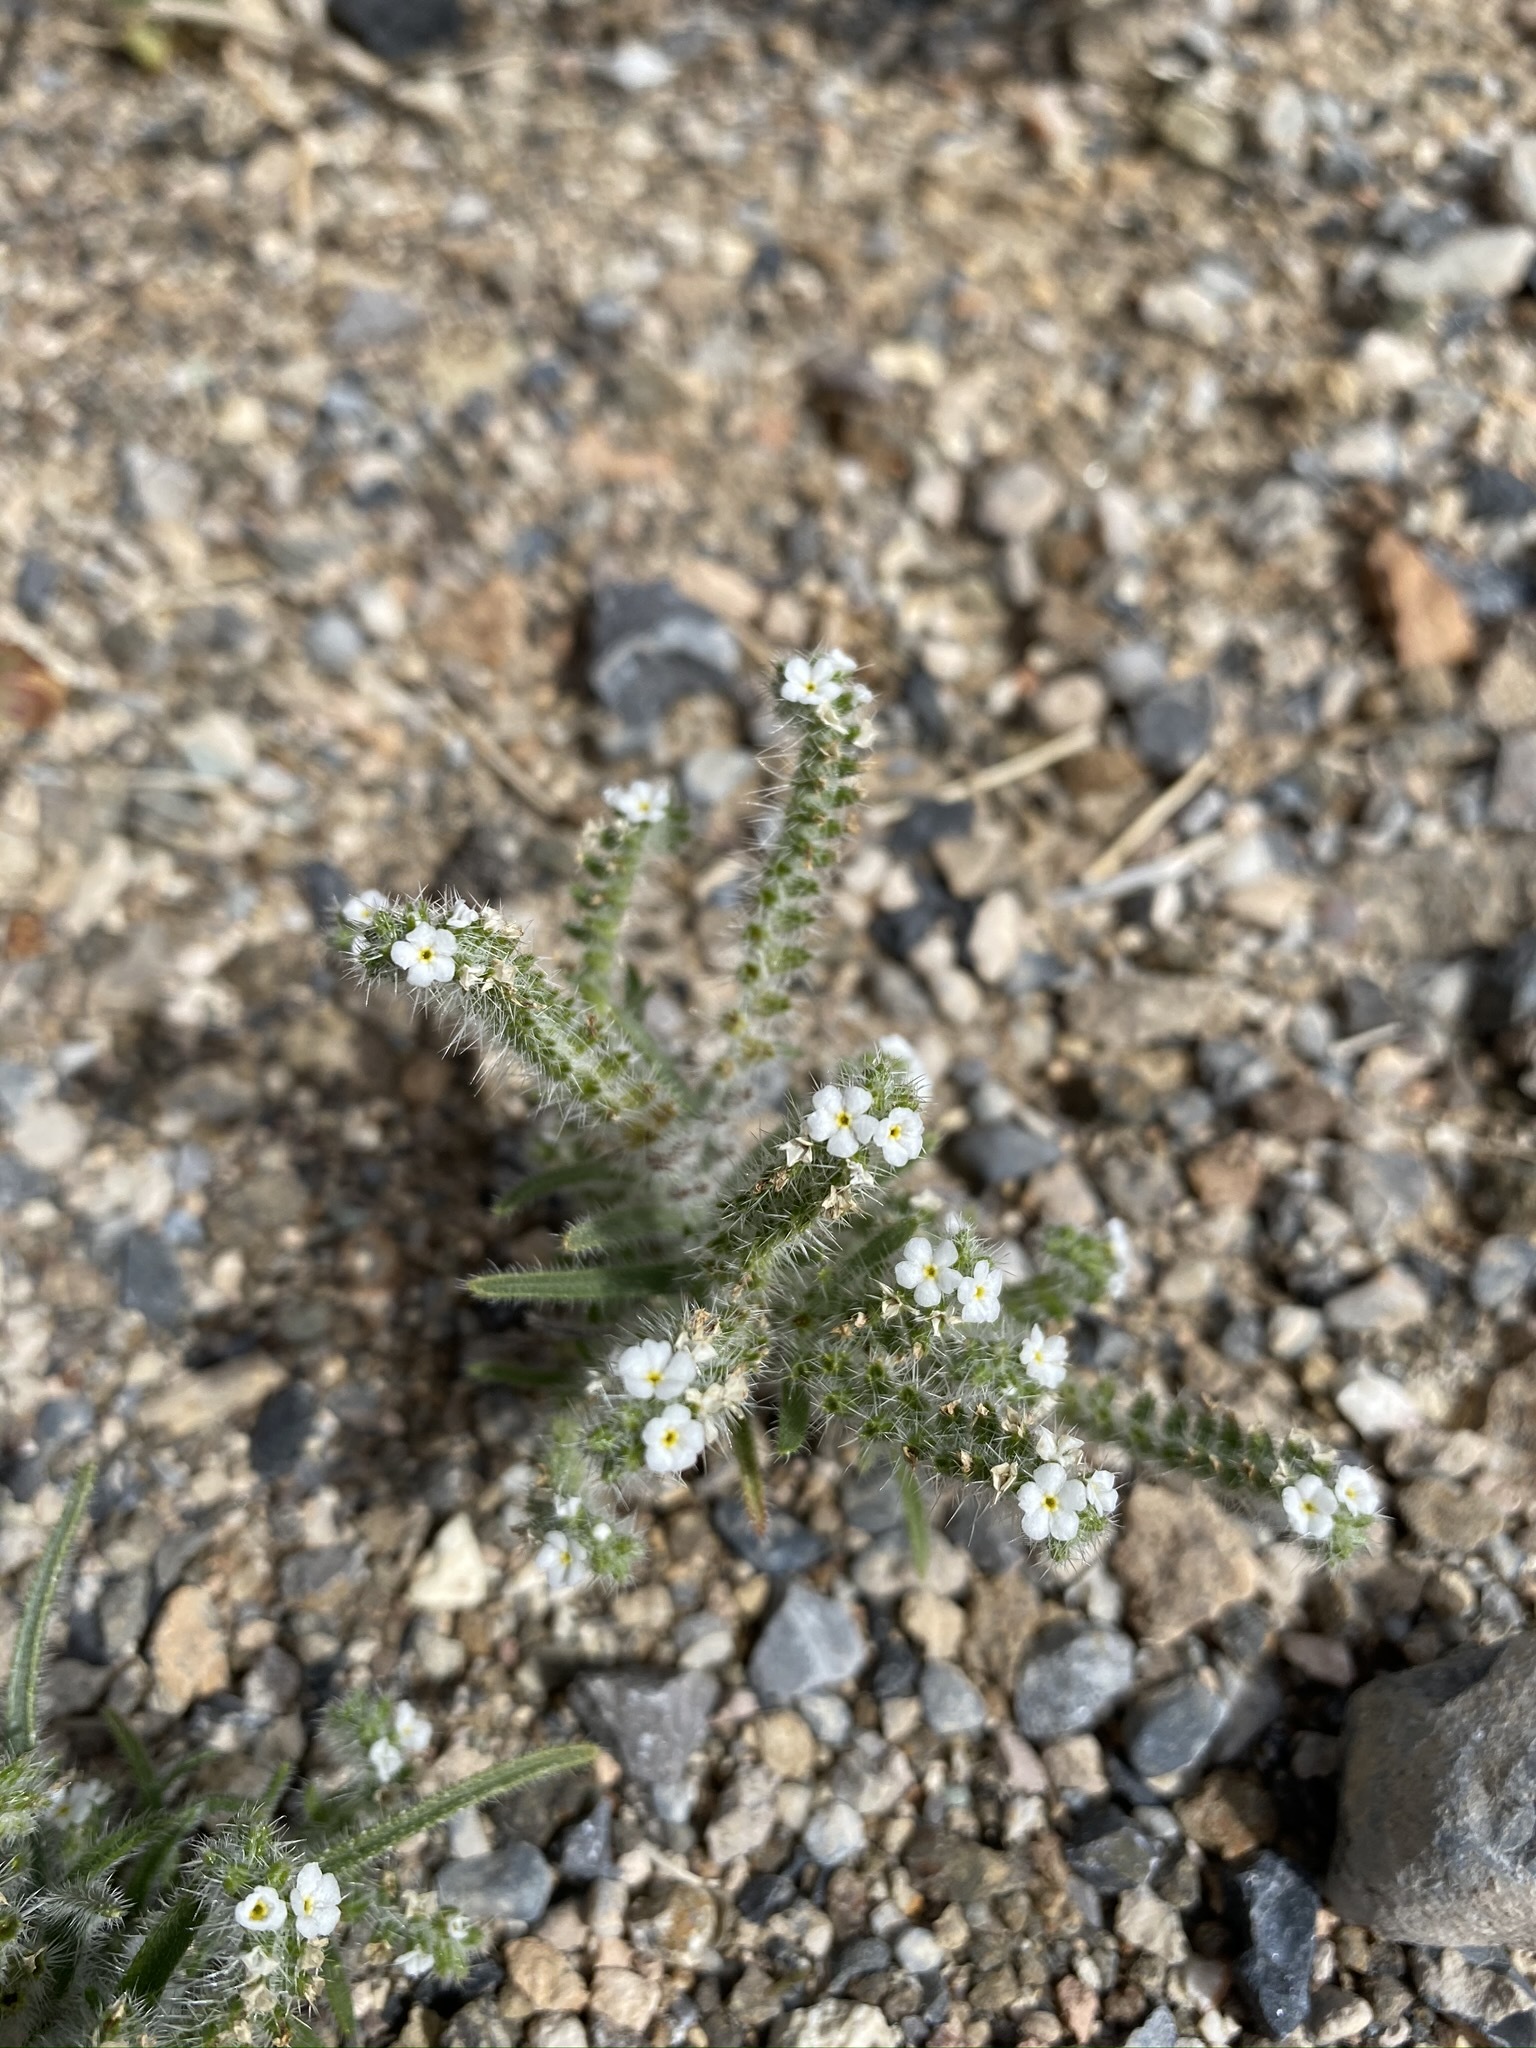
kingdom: Plantae
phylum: Tracheophyta
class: Magnoliopsida
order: Boraginales
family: Boraginaceae
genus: Johnstonella
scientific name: Johnstonella angustifolia
